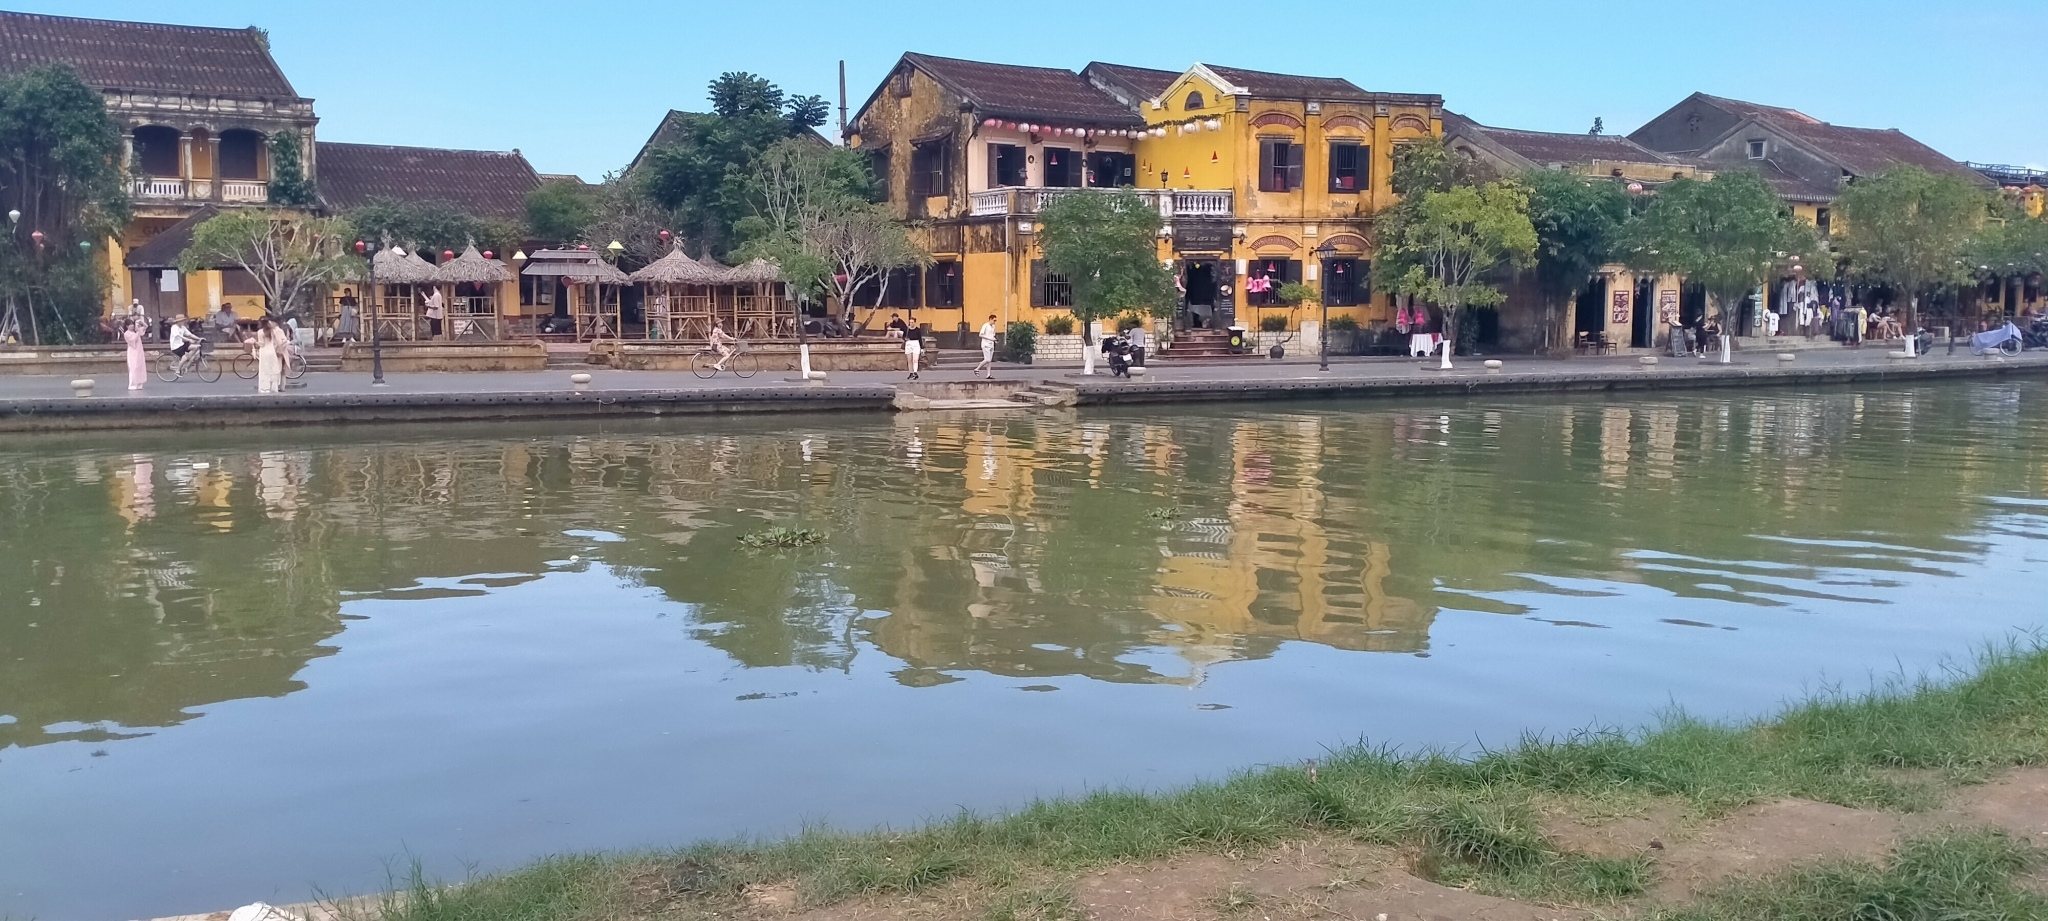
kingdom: Plantae
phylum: Tracheophyta
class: Liliopsida
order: Commelinales
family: Pontederiaceae
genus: Pontederia
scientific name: Pontederia crassipes
